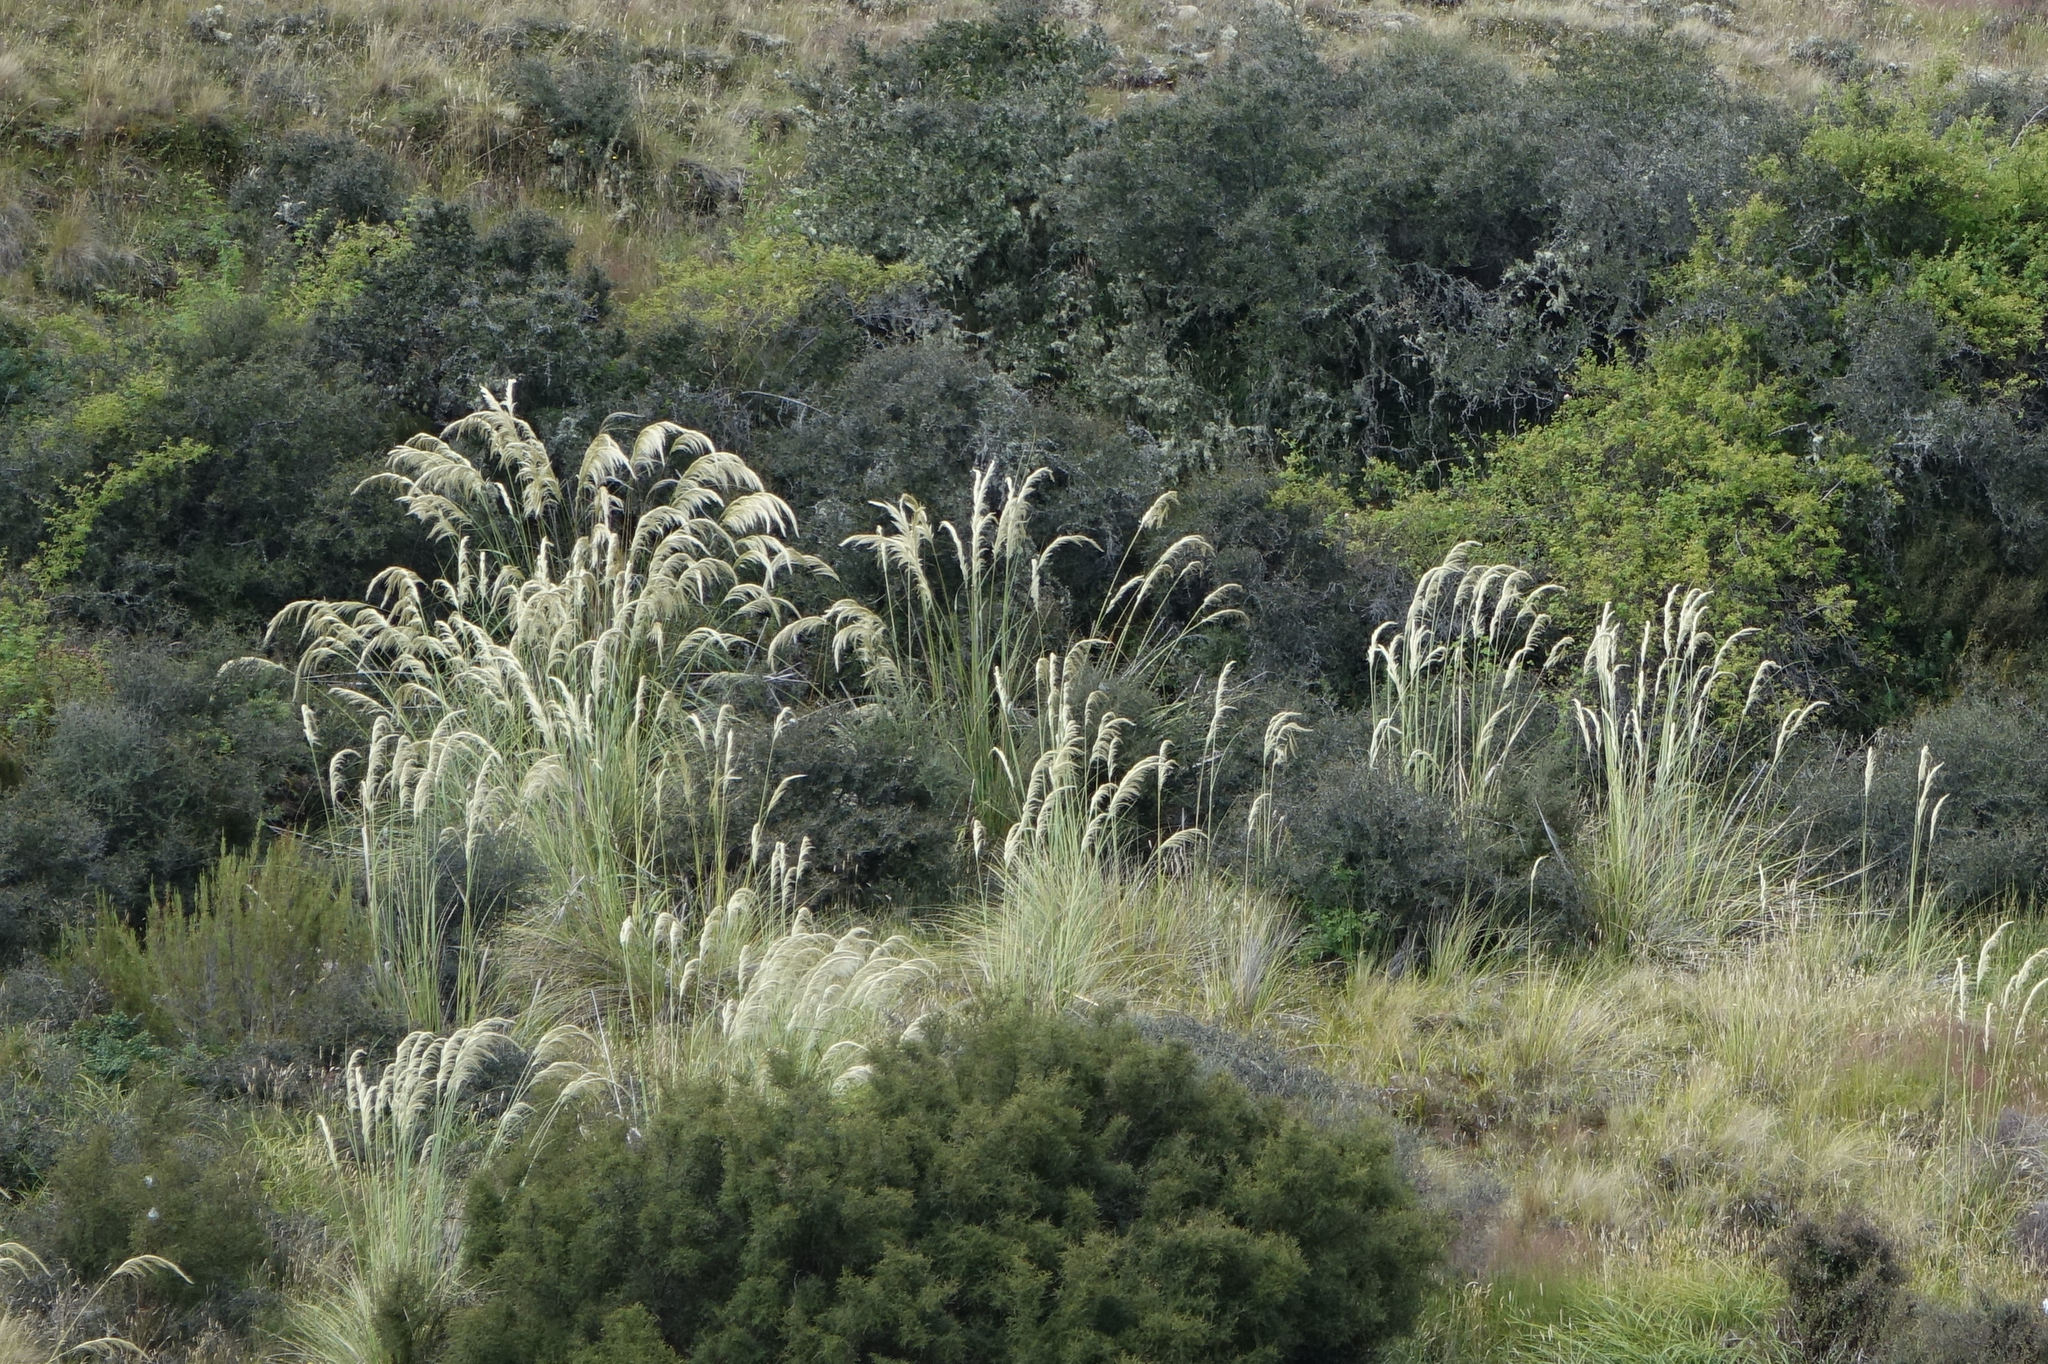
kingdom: Plantae
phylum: Tracheophyta
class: Liliopsida
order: Poales
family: Poaceae
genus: Austroderia
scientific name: Austroderia richardii
